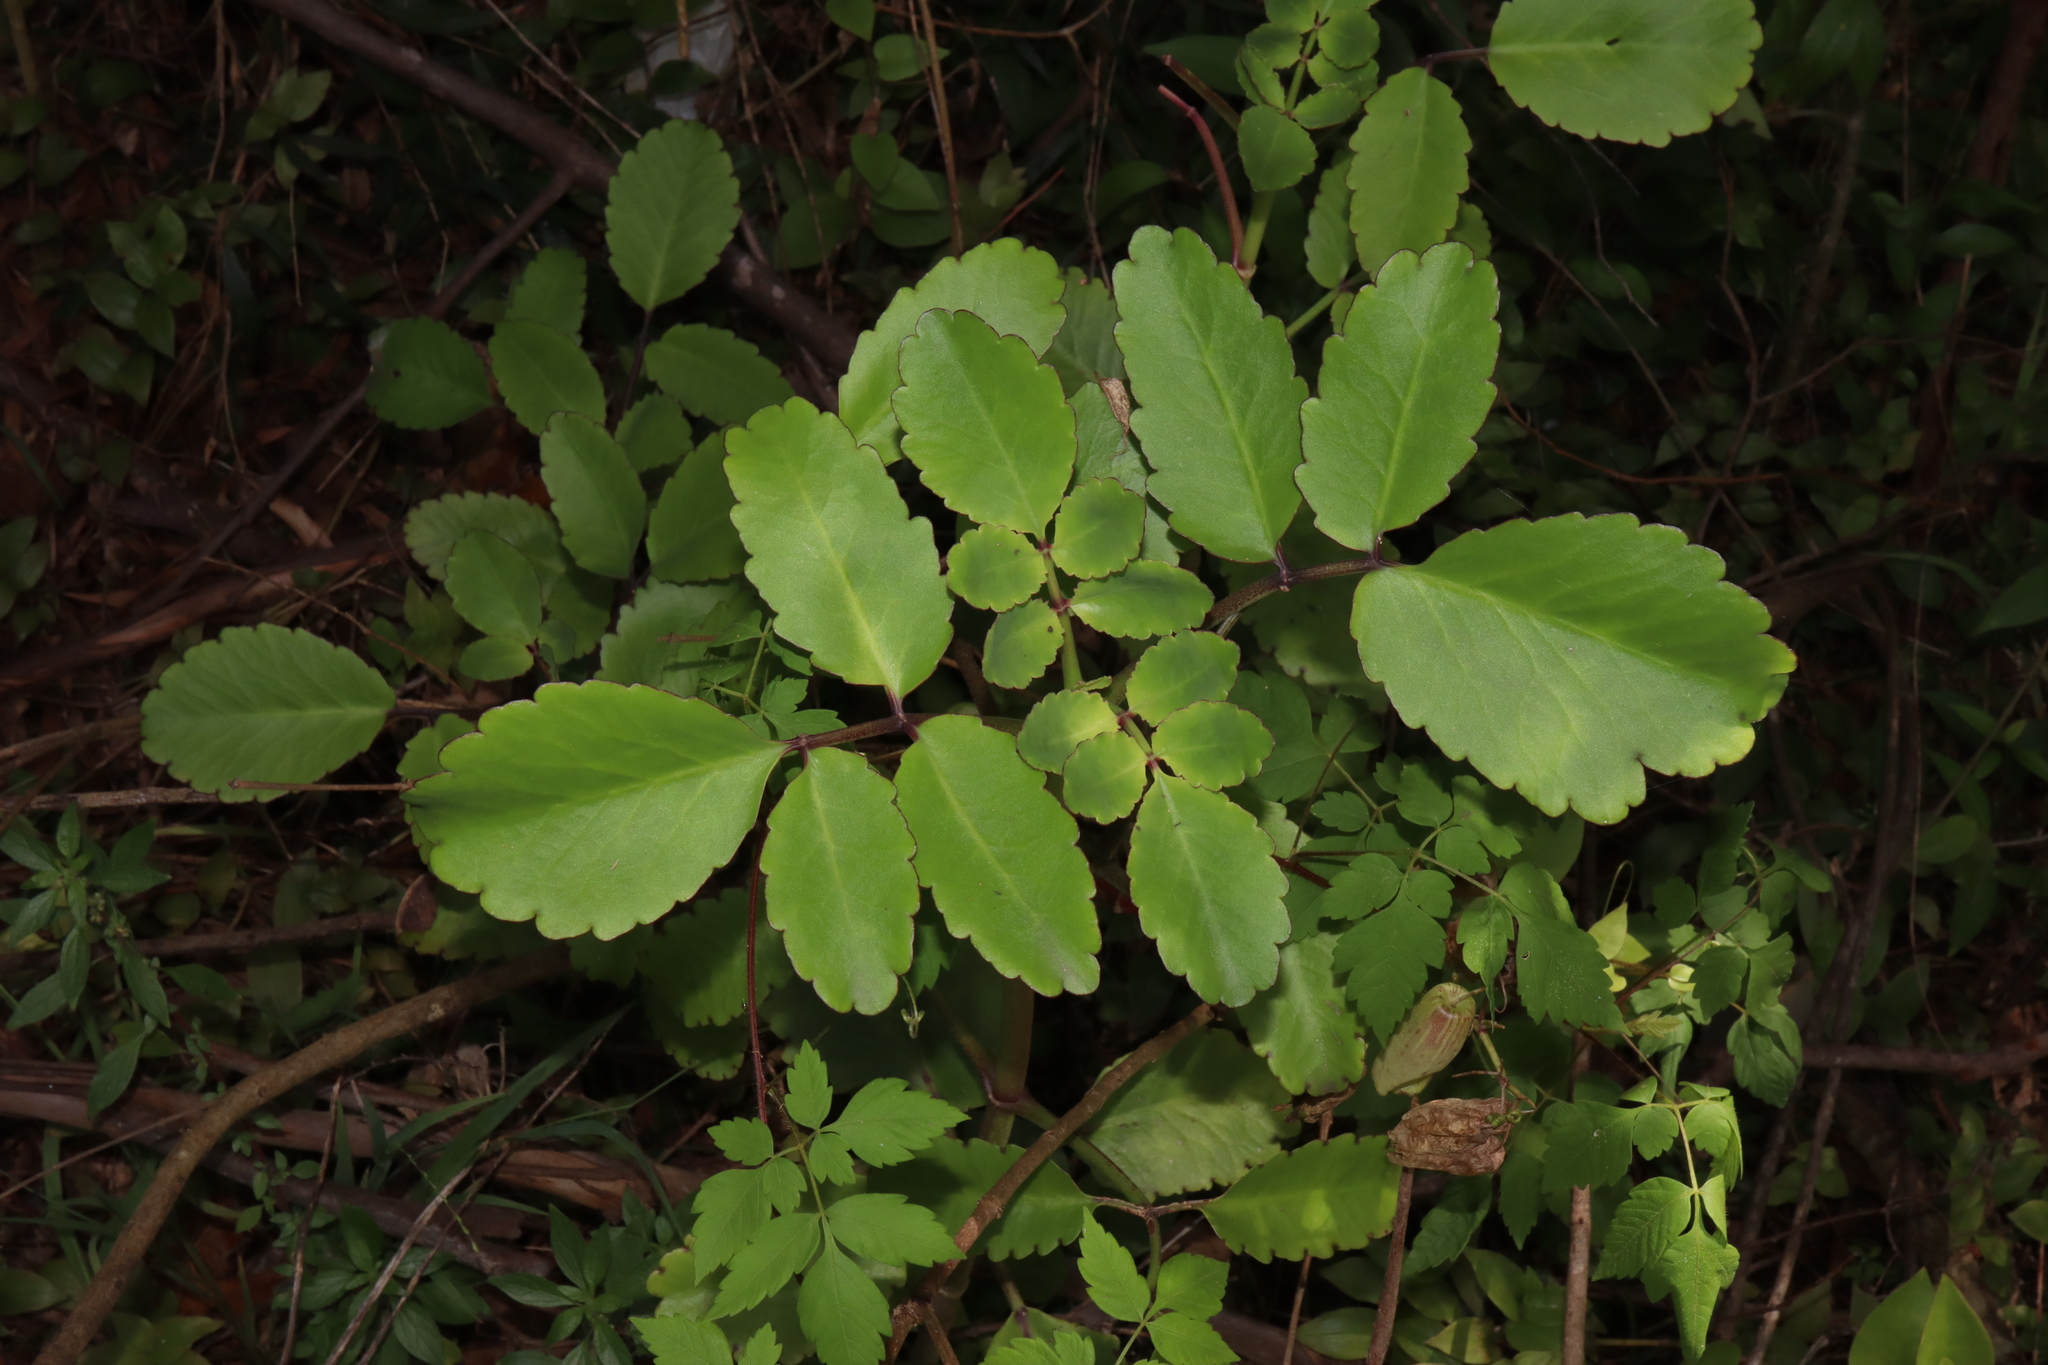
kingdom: Plantae
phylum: Tracheophyta
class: Magnoliopsida
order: Saxifragales
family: Crassulaceae
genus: Kalanchoe
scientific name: Kalanchoe pinnata
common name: Cathedral bells
